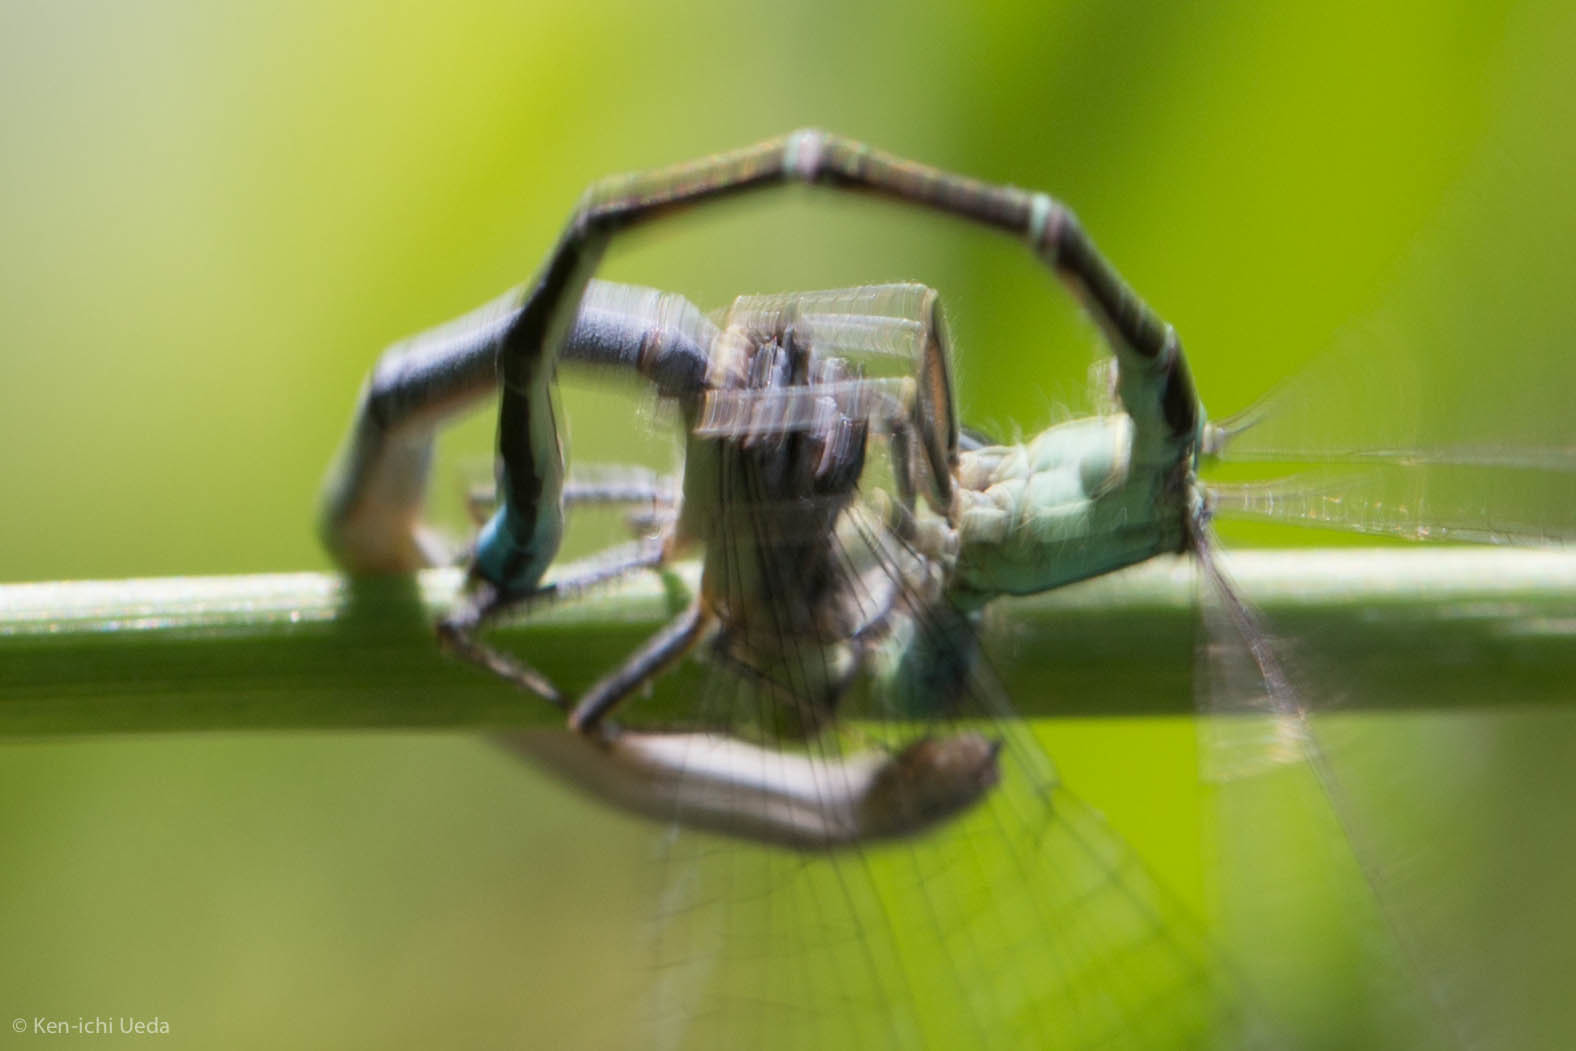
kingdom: Animalia
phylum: Arthropoda
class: Insecta
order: Odonata
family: Coenagrionidae
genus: Ischnura
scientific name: Ischnura perparva
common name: Western forktail
